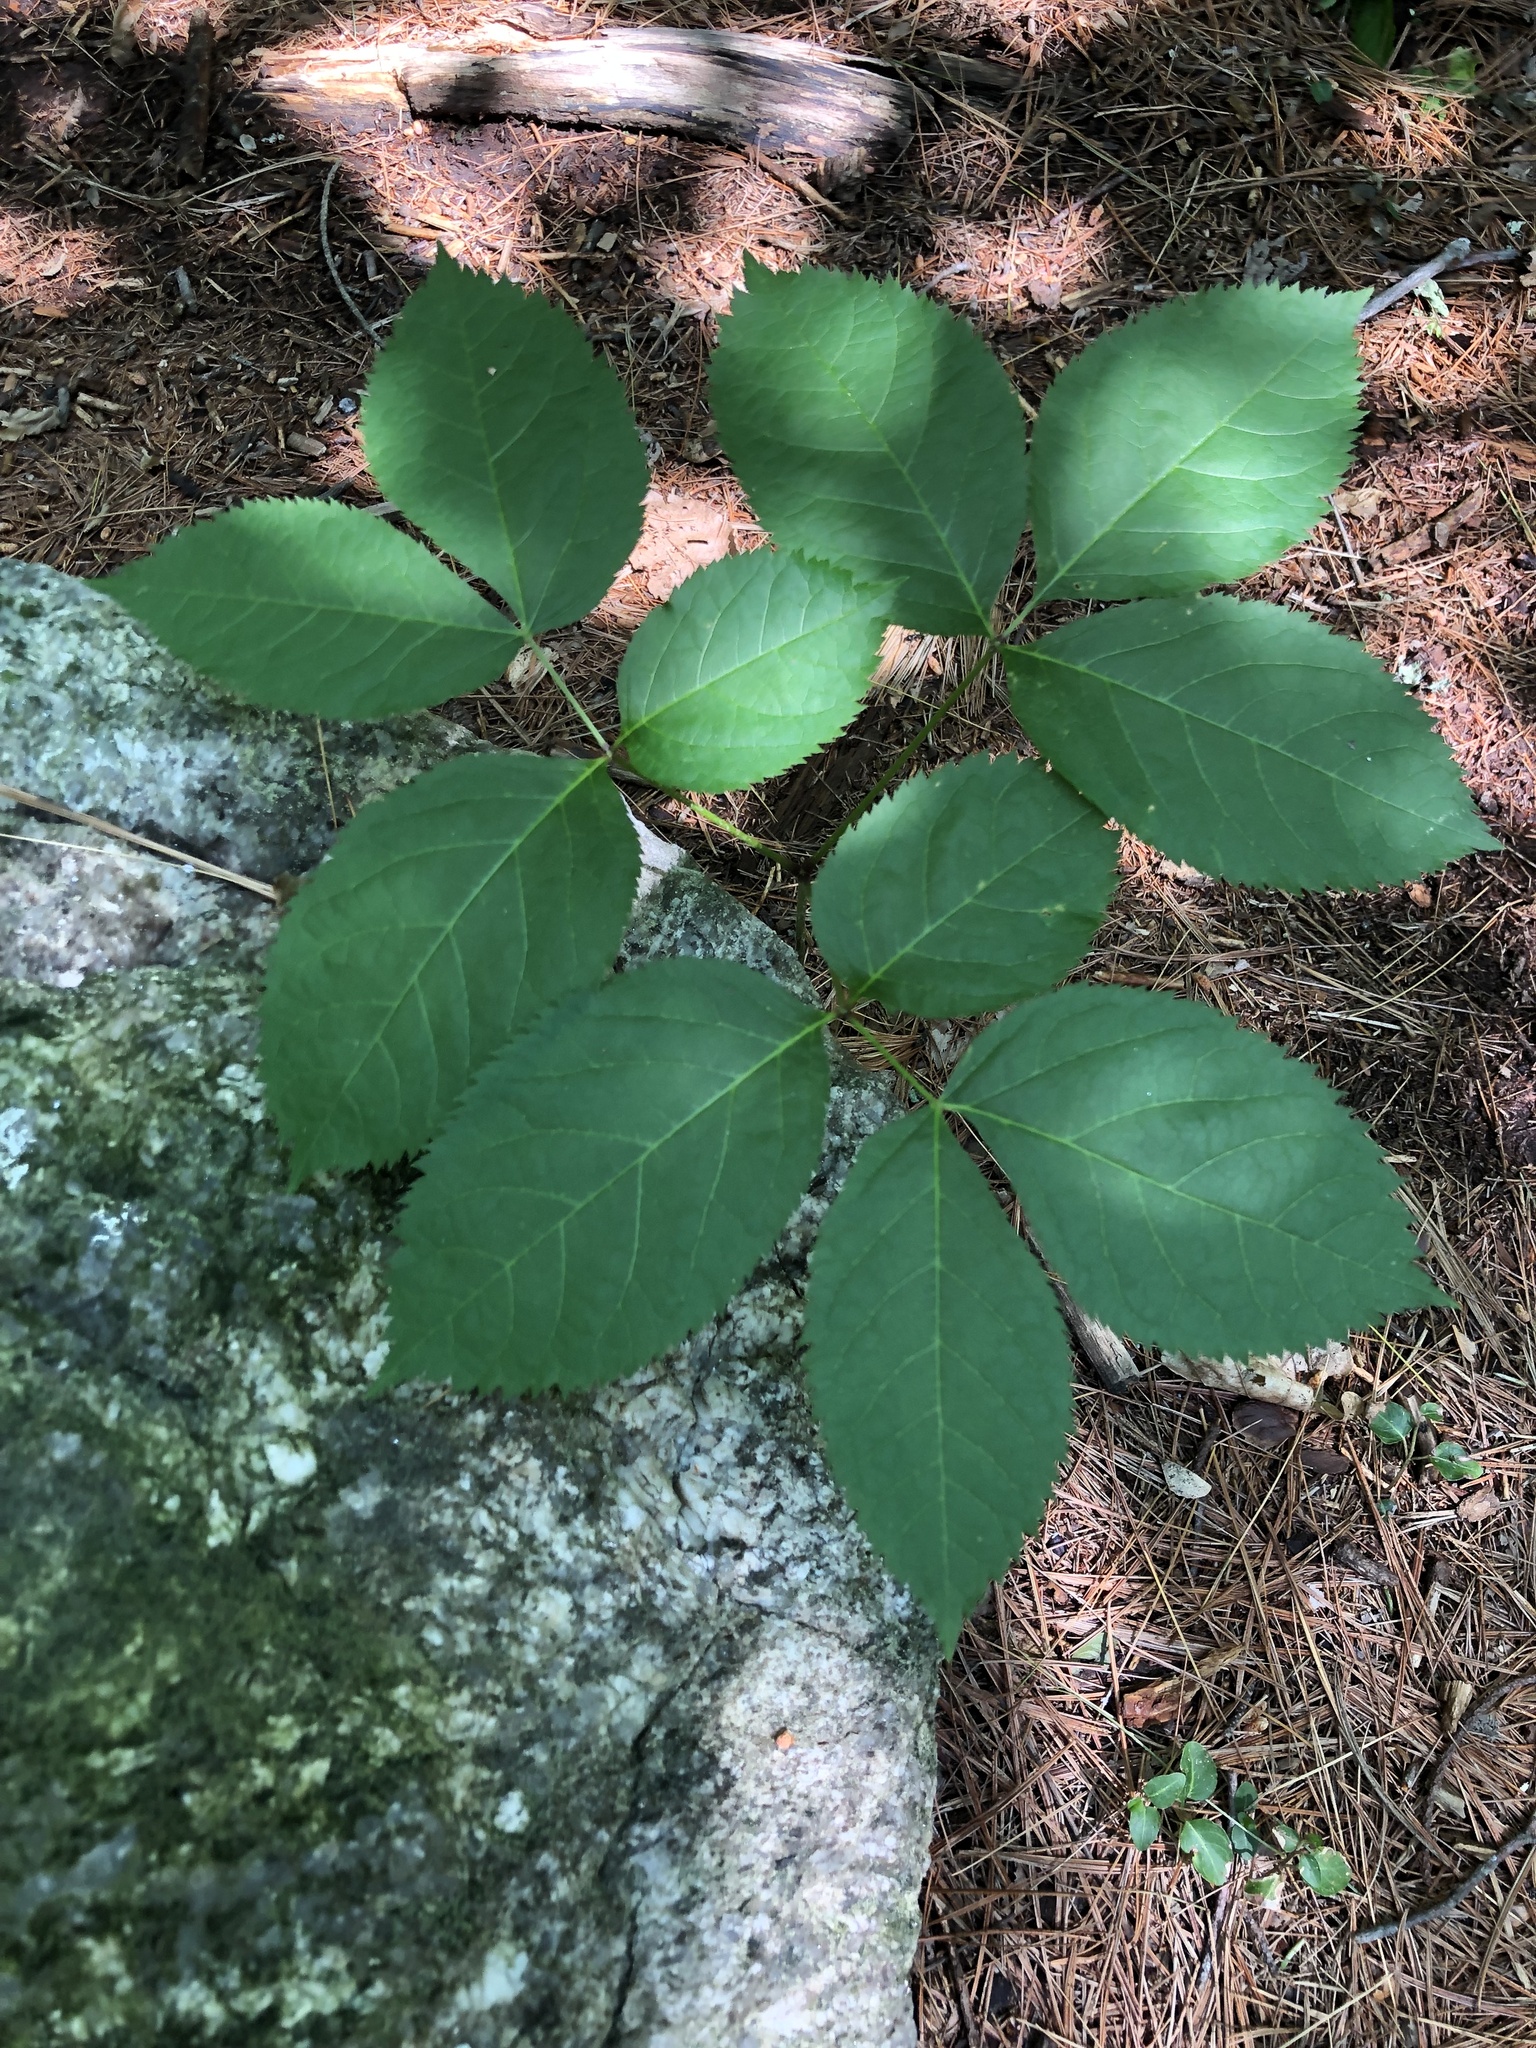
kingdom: Plantae
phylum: Tracheophyta
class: Magnoliopsida
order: Apiales
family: Araliaceae
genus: Aralia
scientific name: Aralia nudicaulis
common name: Wild sarsaparilla
